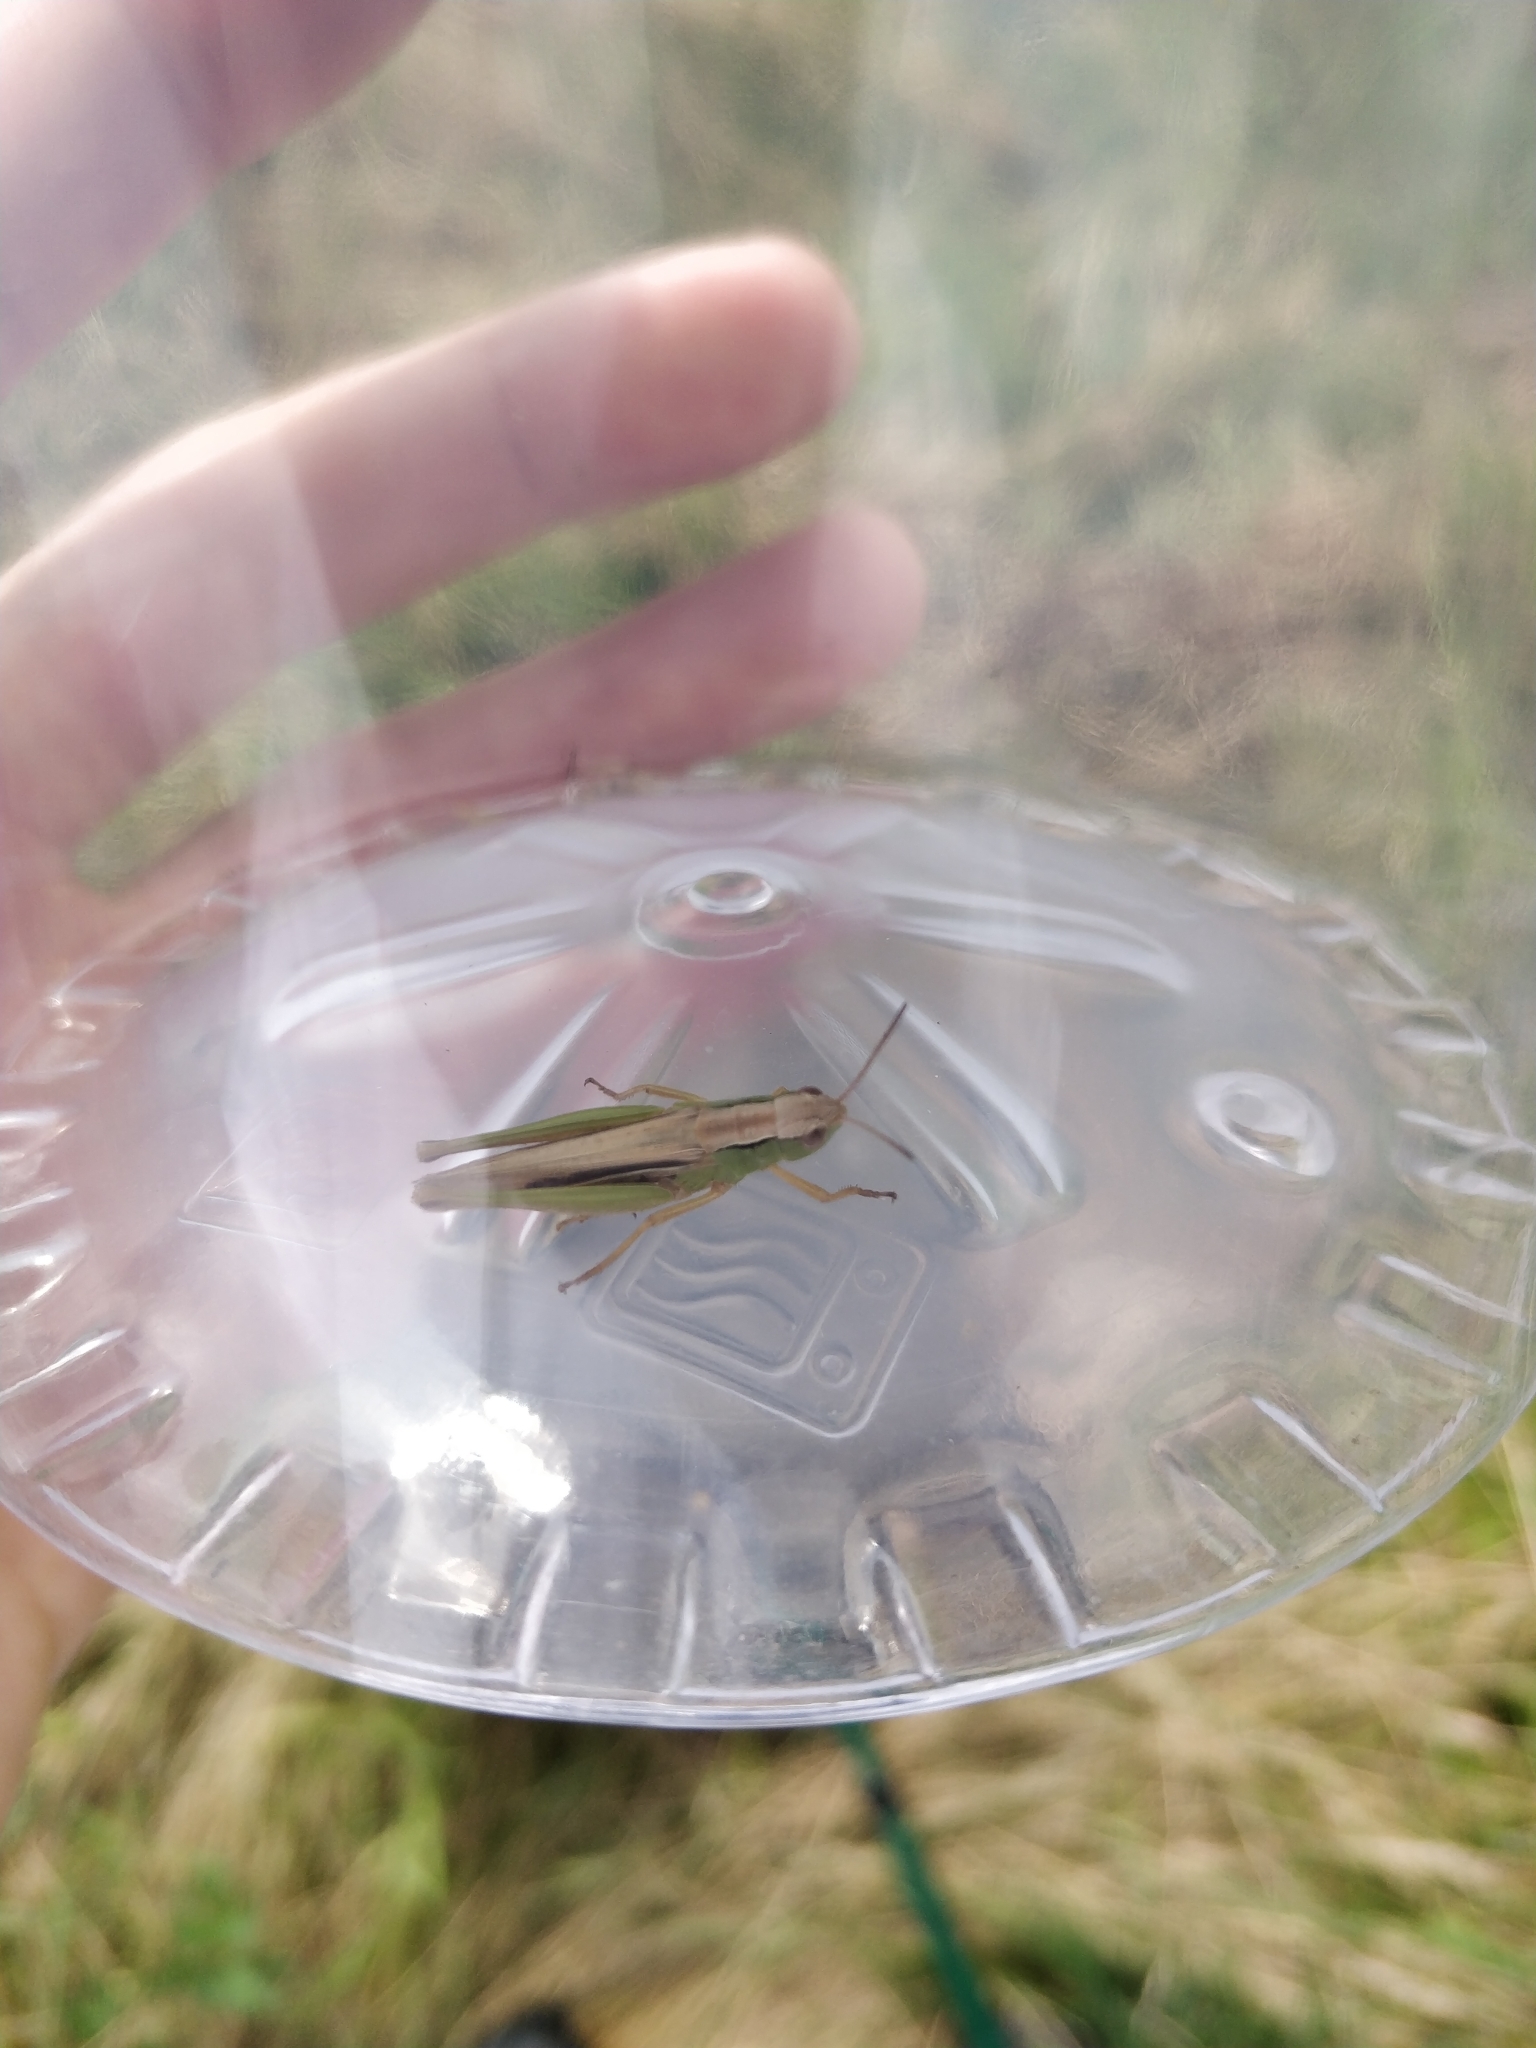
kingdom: Animalia
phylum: Arthropoda
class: Insecta
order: Orthoptera
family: Acrididae
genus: Chorthippus
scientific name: Chorthippus albomarginatus
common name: Lesser marsh grasshopper
